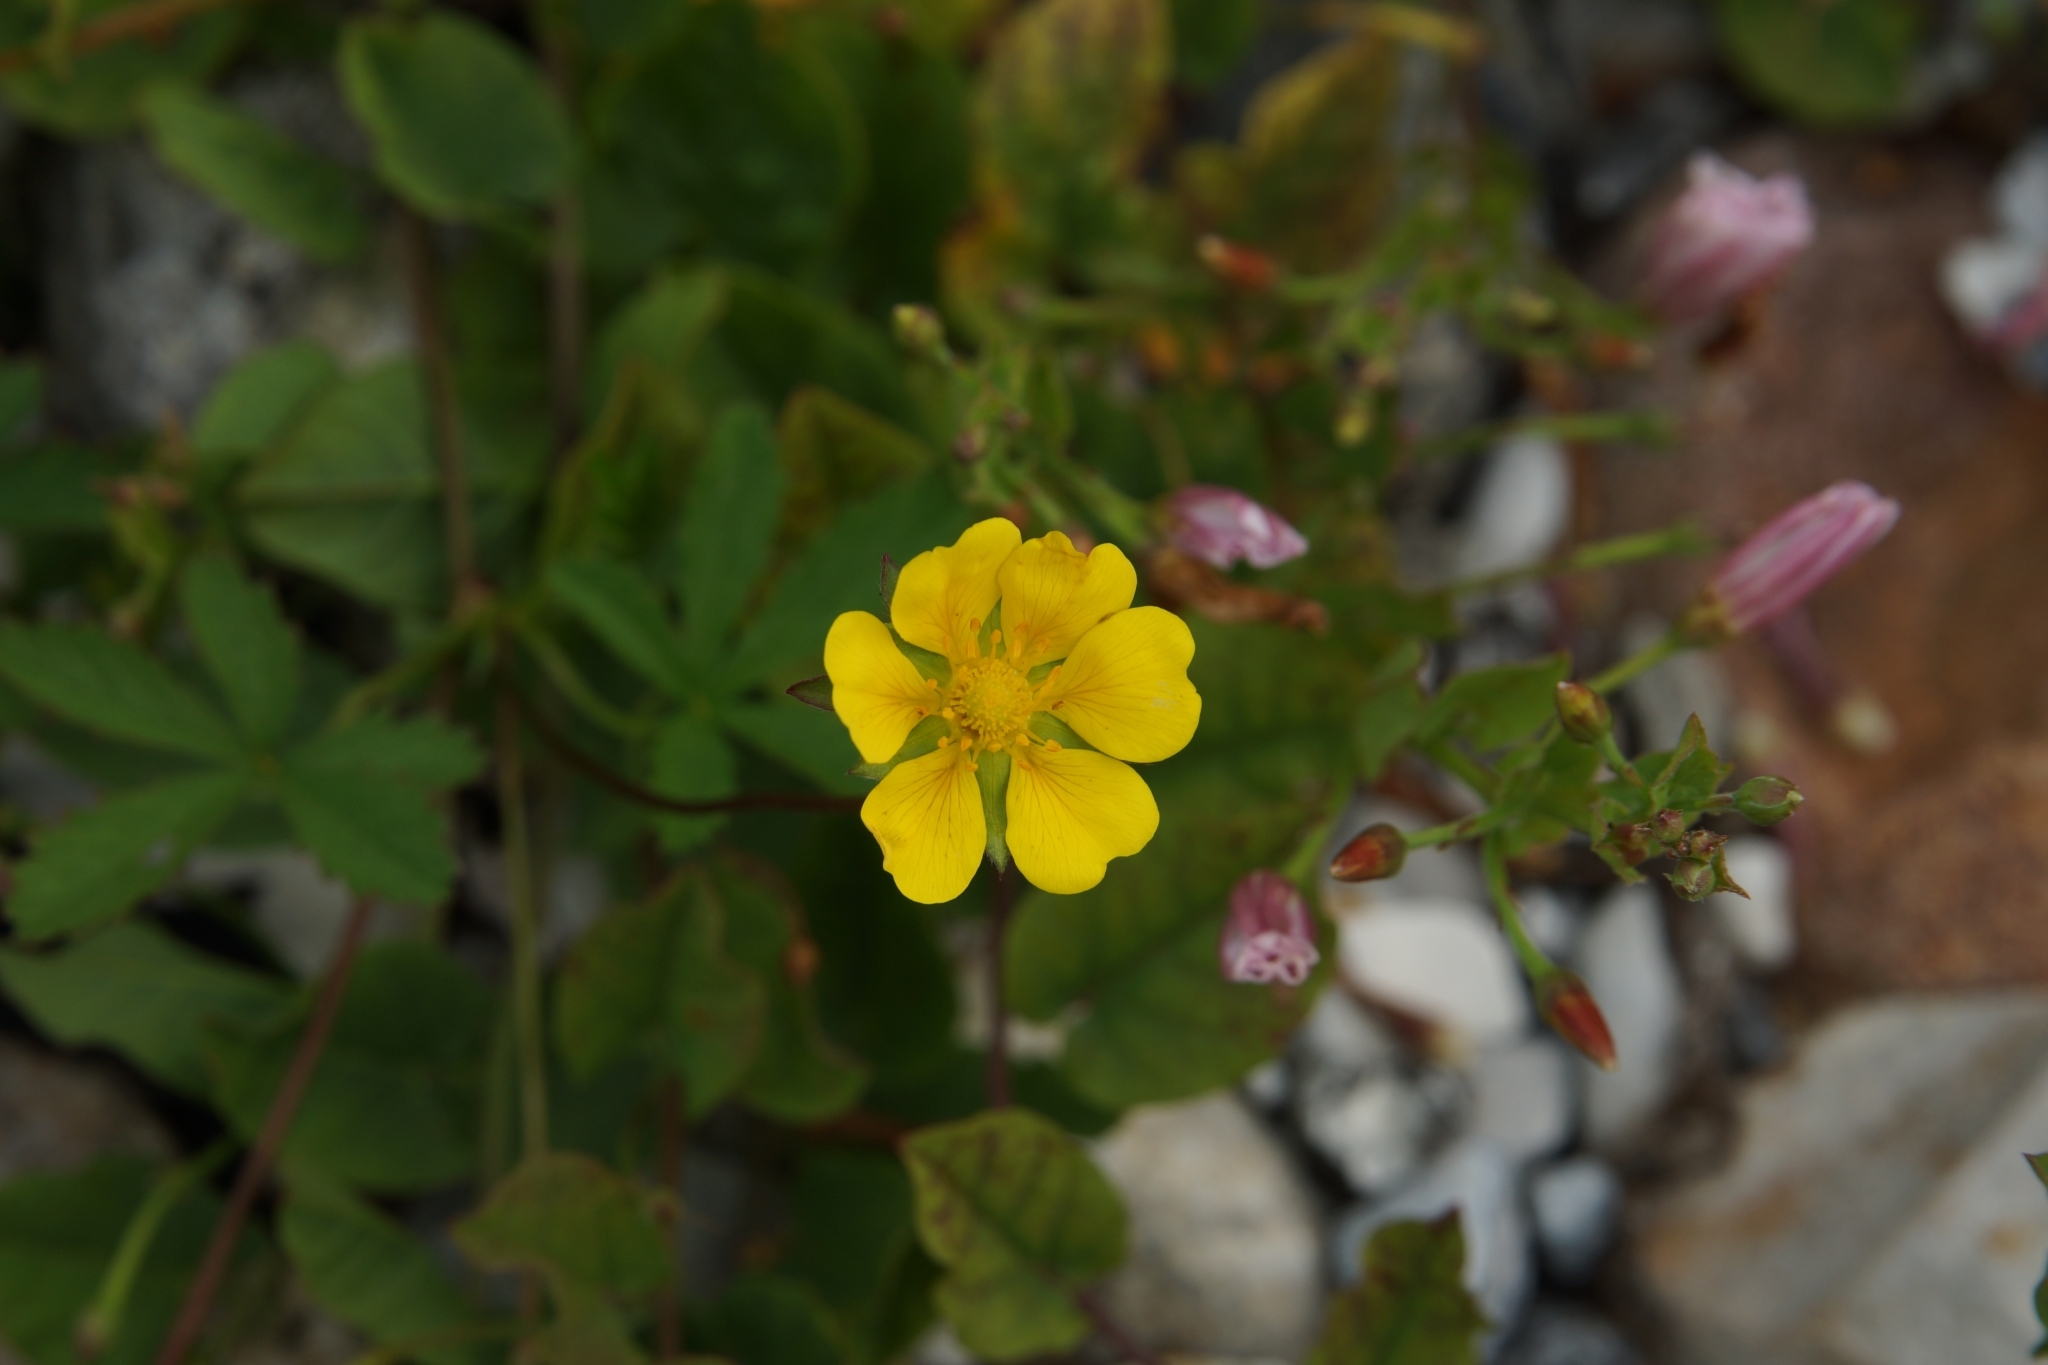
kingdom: Plantae
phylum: Tracheophyta
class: Magnoliopsida
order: Rosales
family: Rosaceae
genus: Potentilla
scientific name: Potentilla reptans
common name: Creeping cinquefoil
